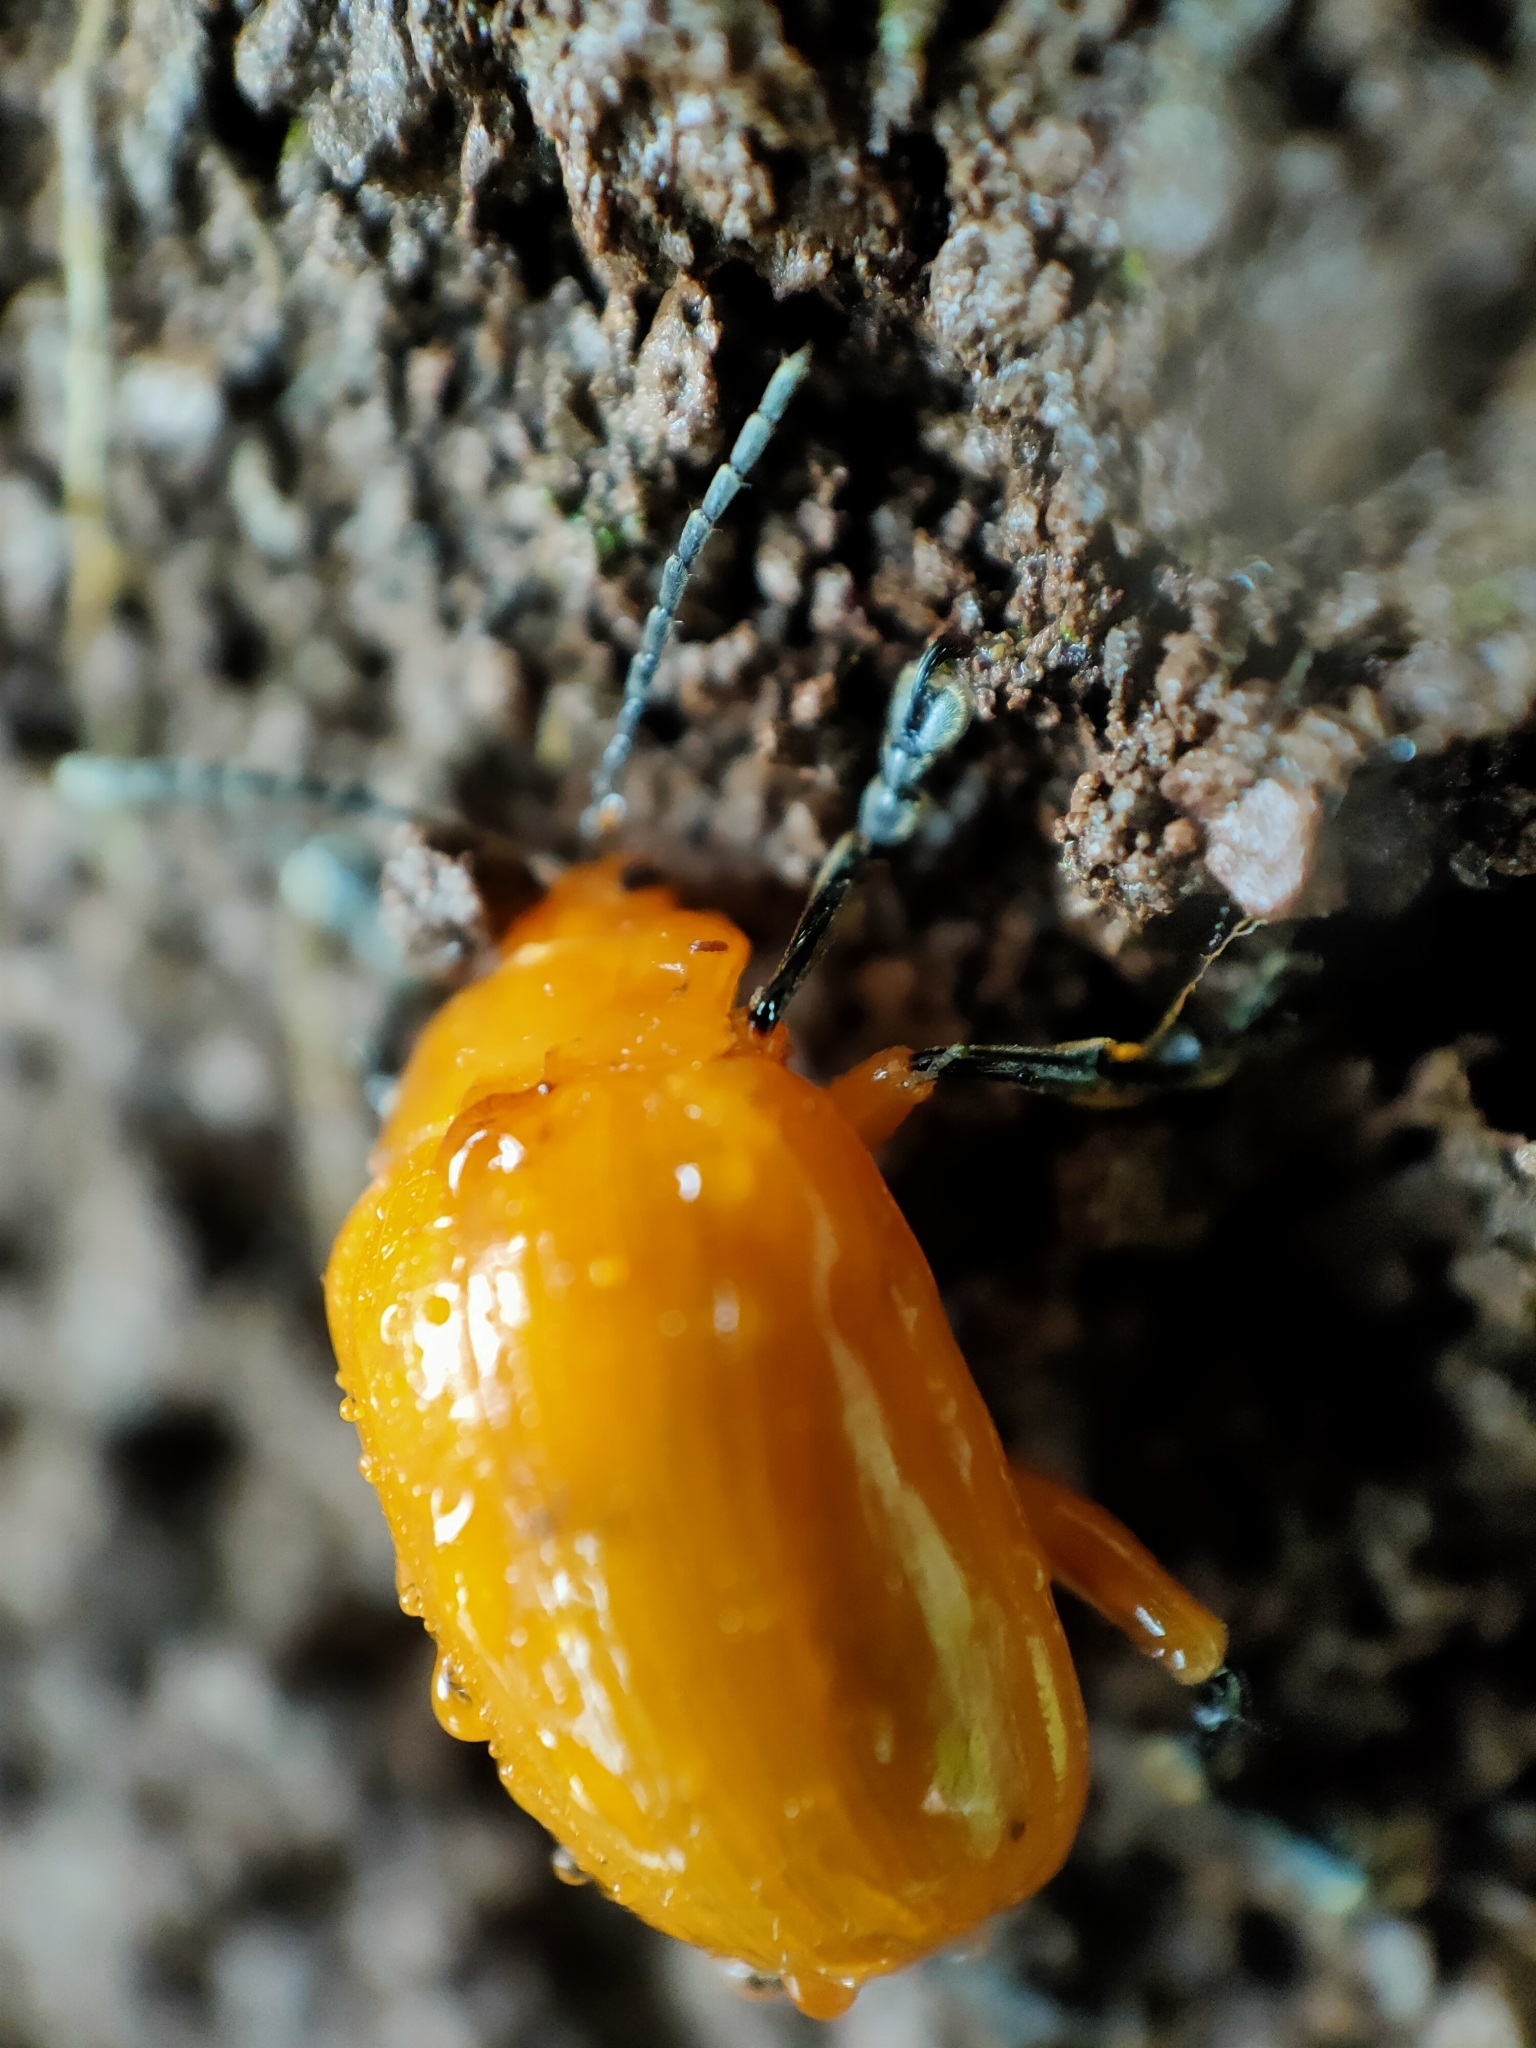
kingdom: Animalia
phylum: Arthropoda
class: Insecta
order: Coleoptera
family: Chrysomelidae
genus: Podontia
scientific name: Podontia lutea
